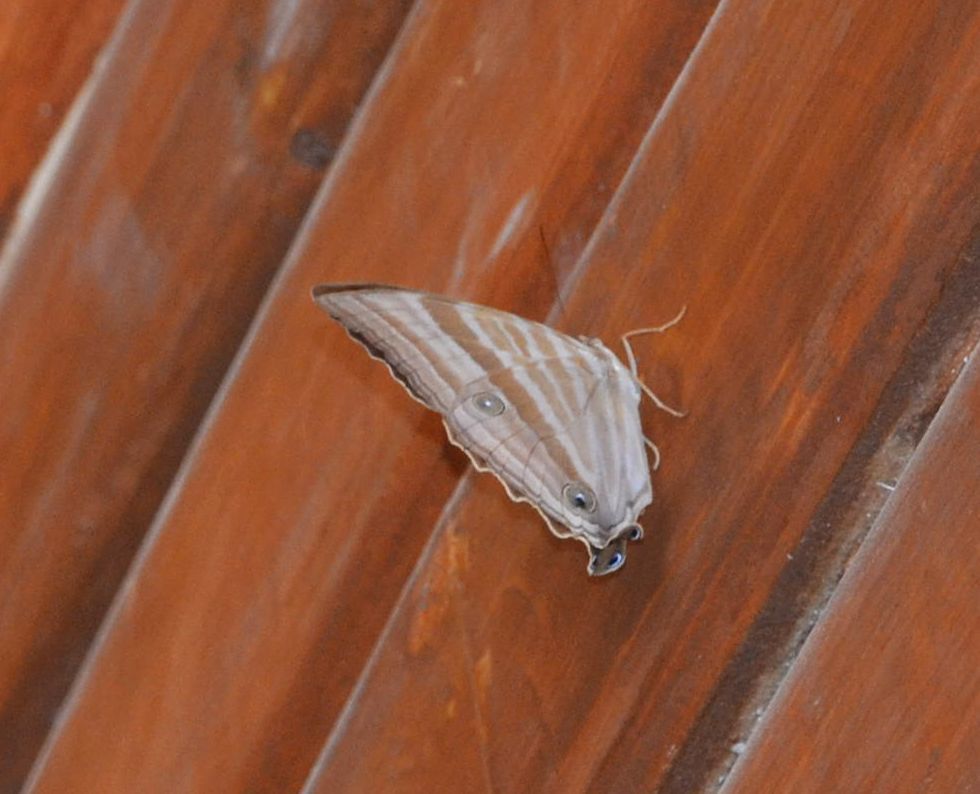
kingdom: Animalia
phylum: Arthropoda
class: Insecta
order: Lepidoptera
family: Nymphalidae
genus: Amathusia
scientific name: Amathusia phidippus
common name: Palm king
